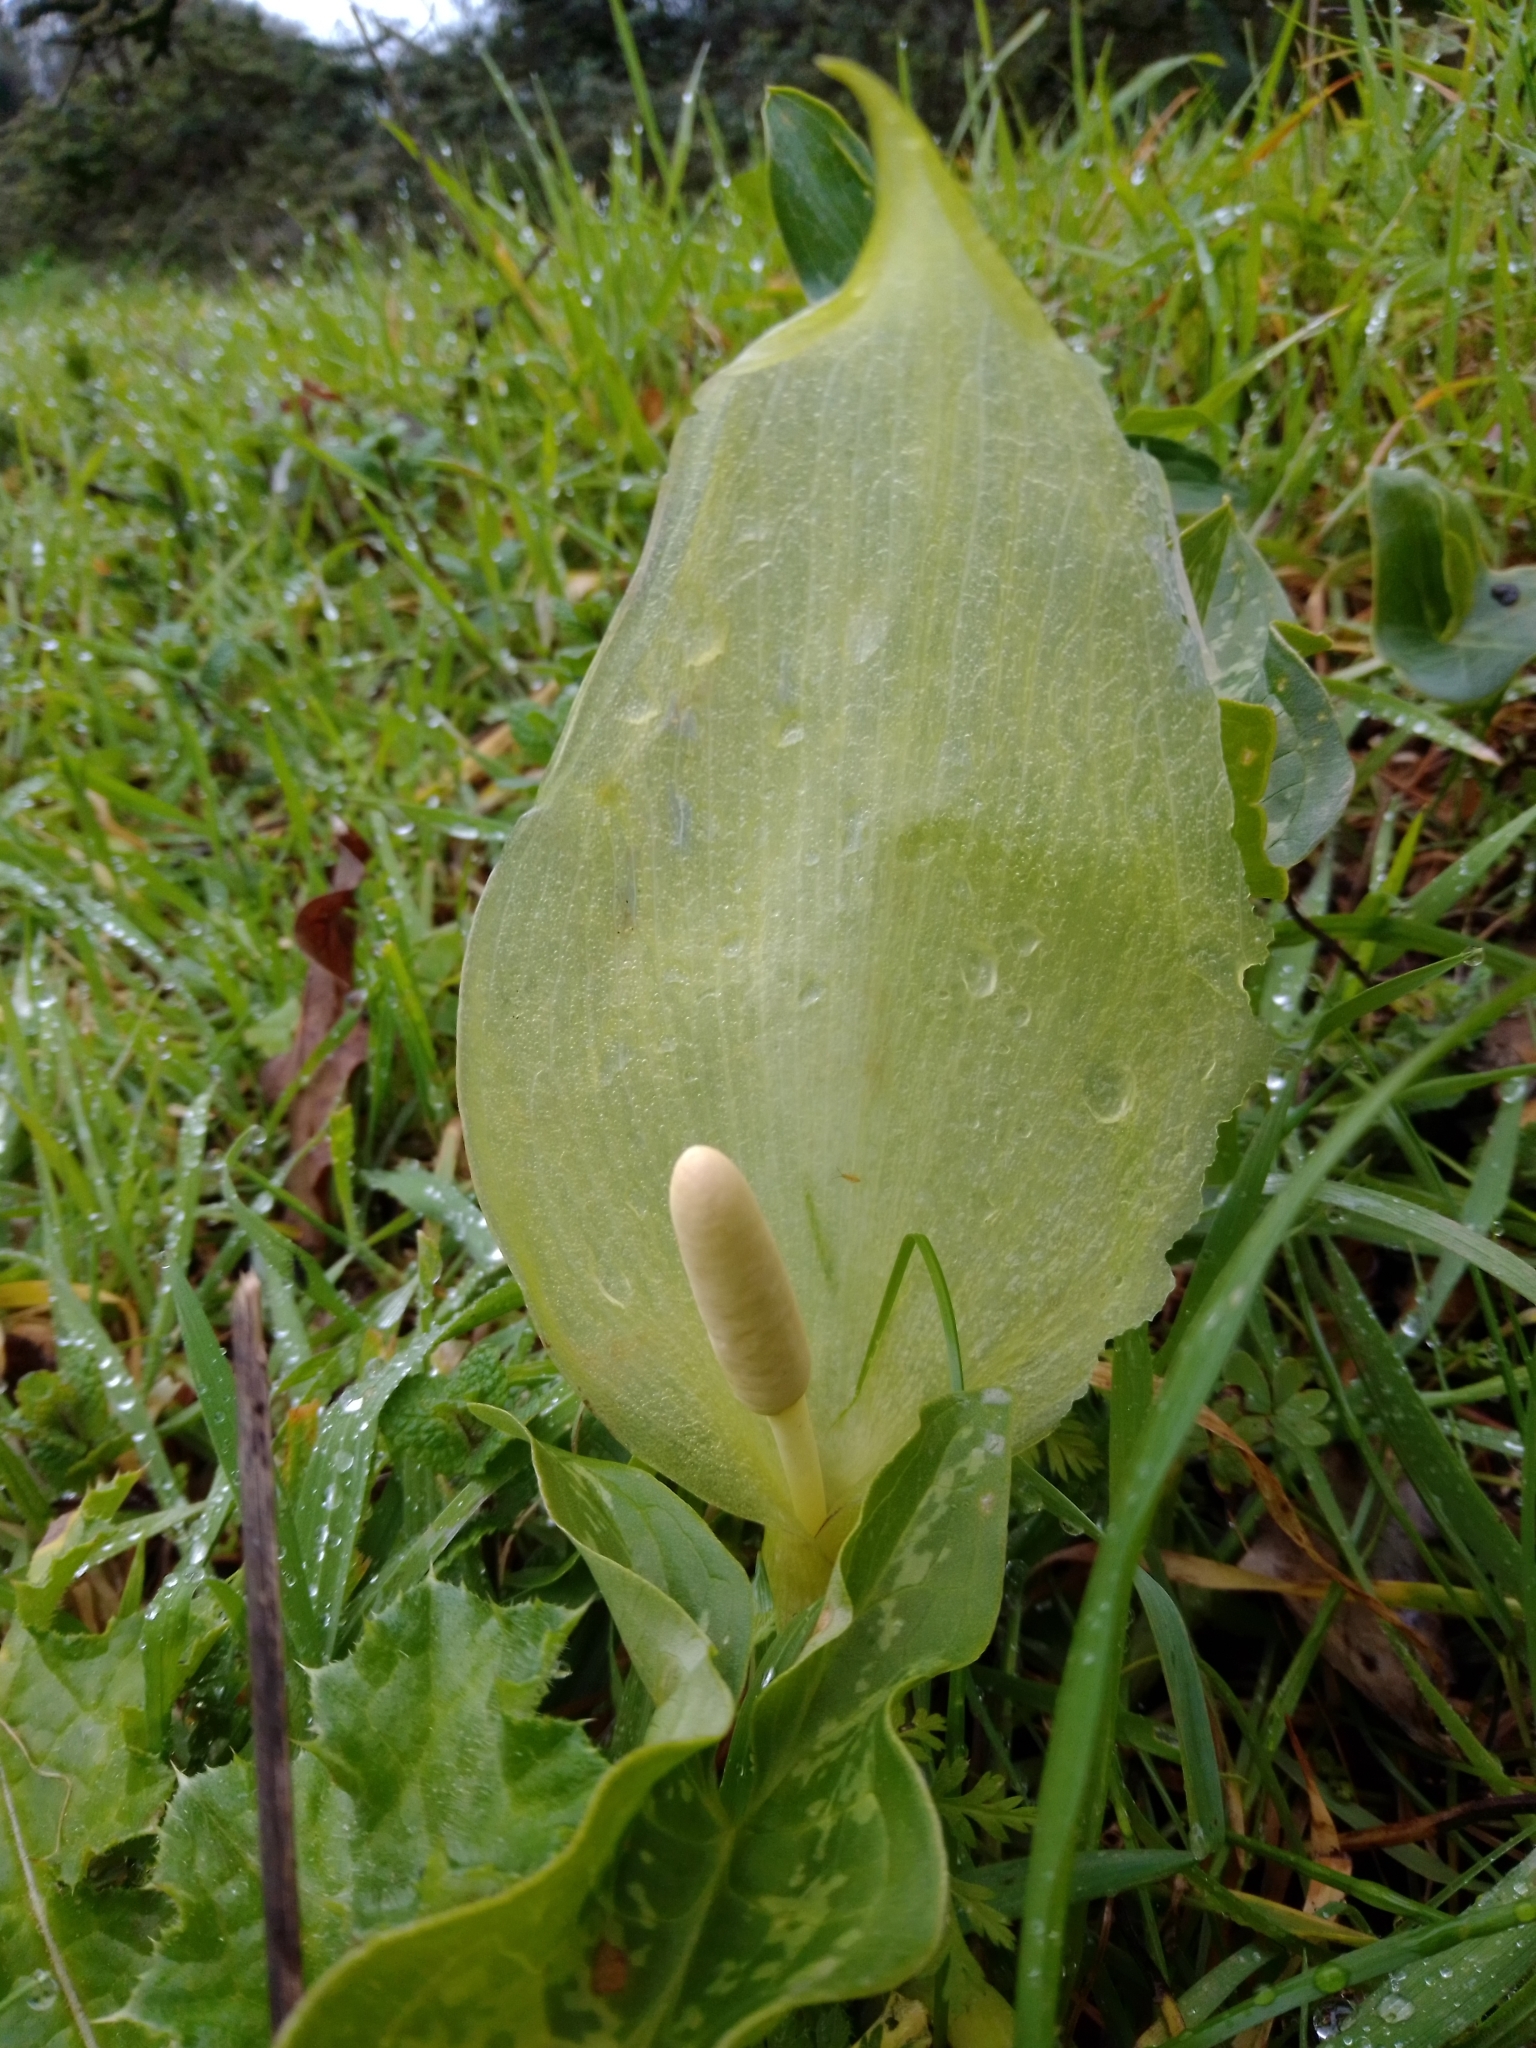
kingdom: Plantae
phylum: Tracheophyta
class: Liliopsida
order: Alismatales
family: Araceae
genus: Arum
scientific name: Arum italicum
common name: Italian lords-and-ladies
